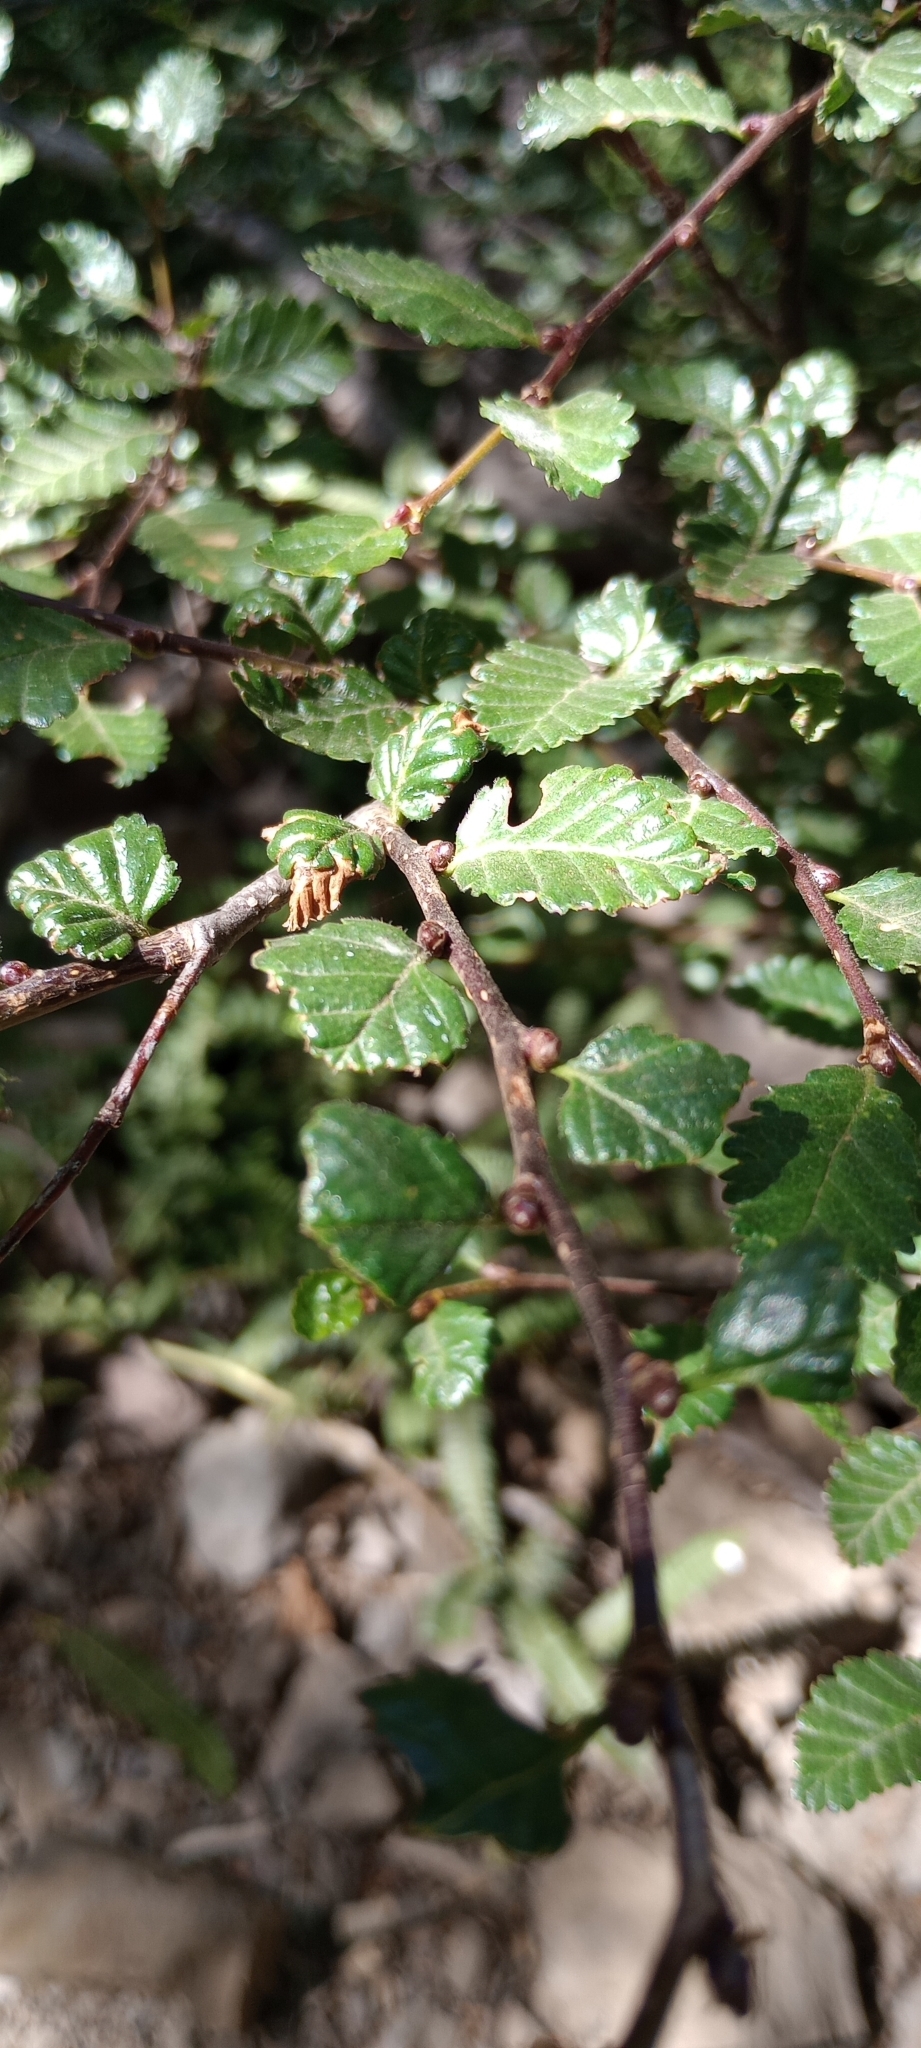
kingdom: Plantae
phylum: Tracheophyta
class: Magnoliopsida
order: Fagales
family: Nothofagaceae
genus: Nothofagus
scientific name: Nothofagus pumilio
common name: Lenga beech
